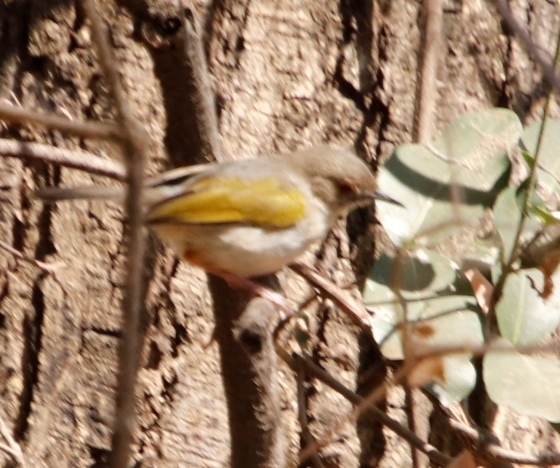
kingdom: Animalia
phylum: Chordata
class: Aves
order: Passeriformes
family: Cisticolidae
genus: Camaroptera
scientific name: Camaroptera brachyura
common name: Green-backed camaroptera
